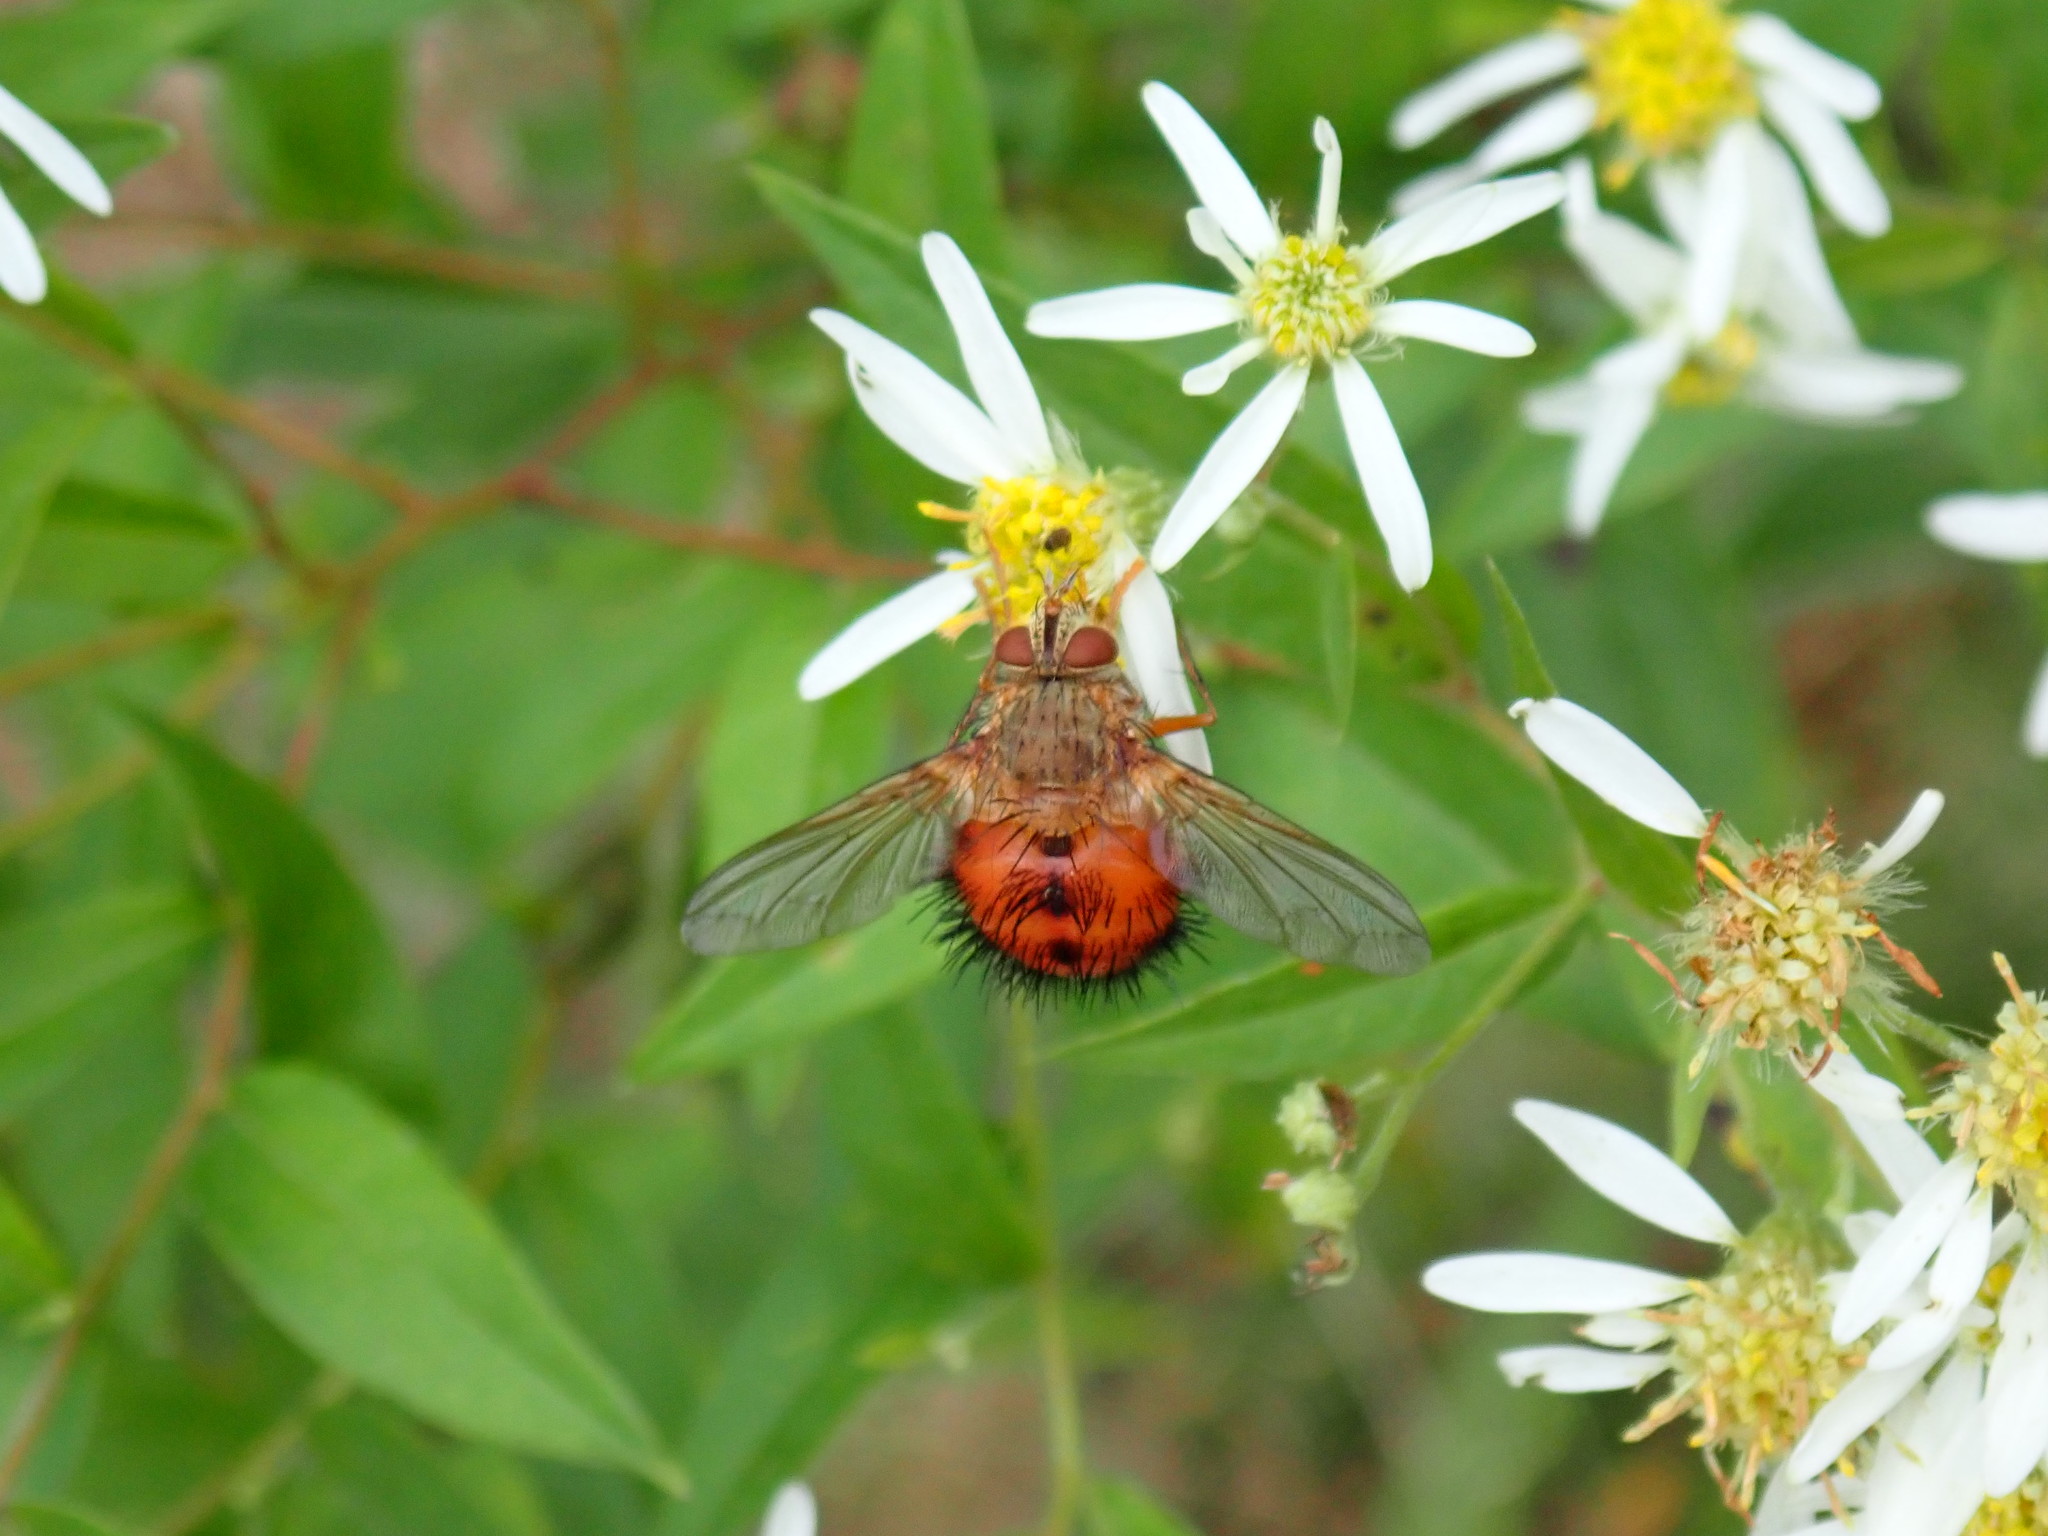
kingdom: Animalia
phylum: Arthropoda
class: Insecta
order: Diptera
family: Tachinidae
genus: Hystricia
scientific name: Hystricia abrupta
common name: Tomato bristle fly
